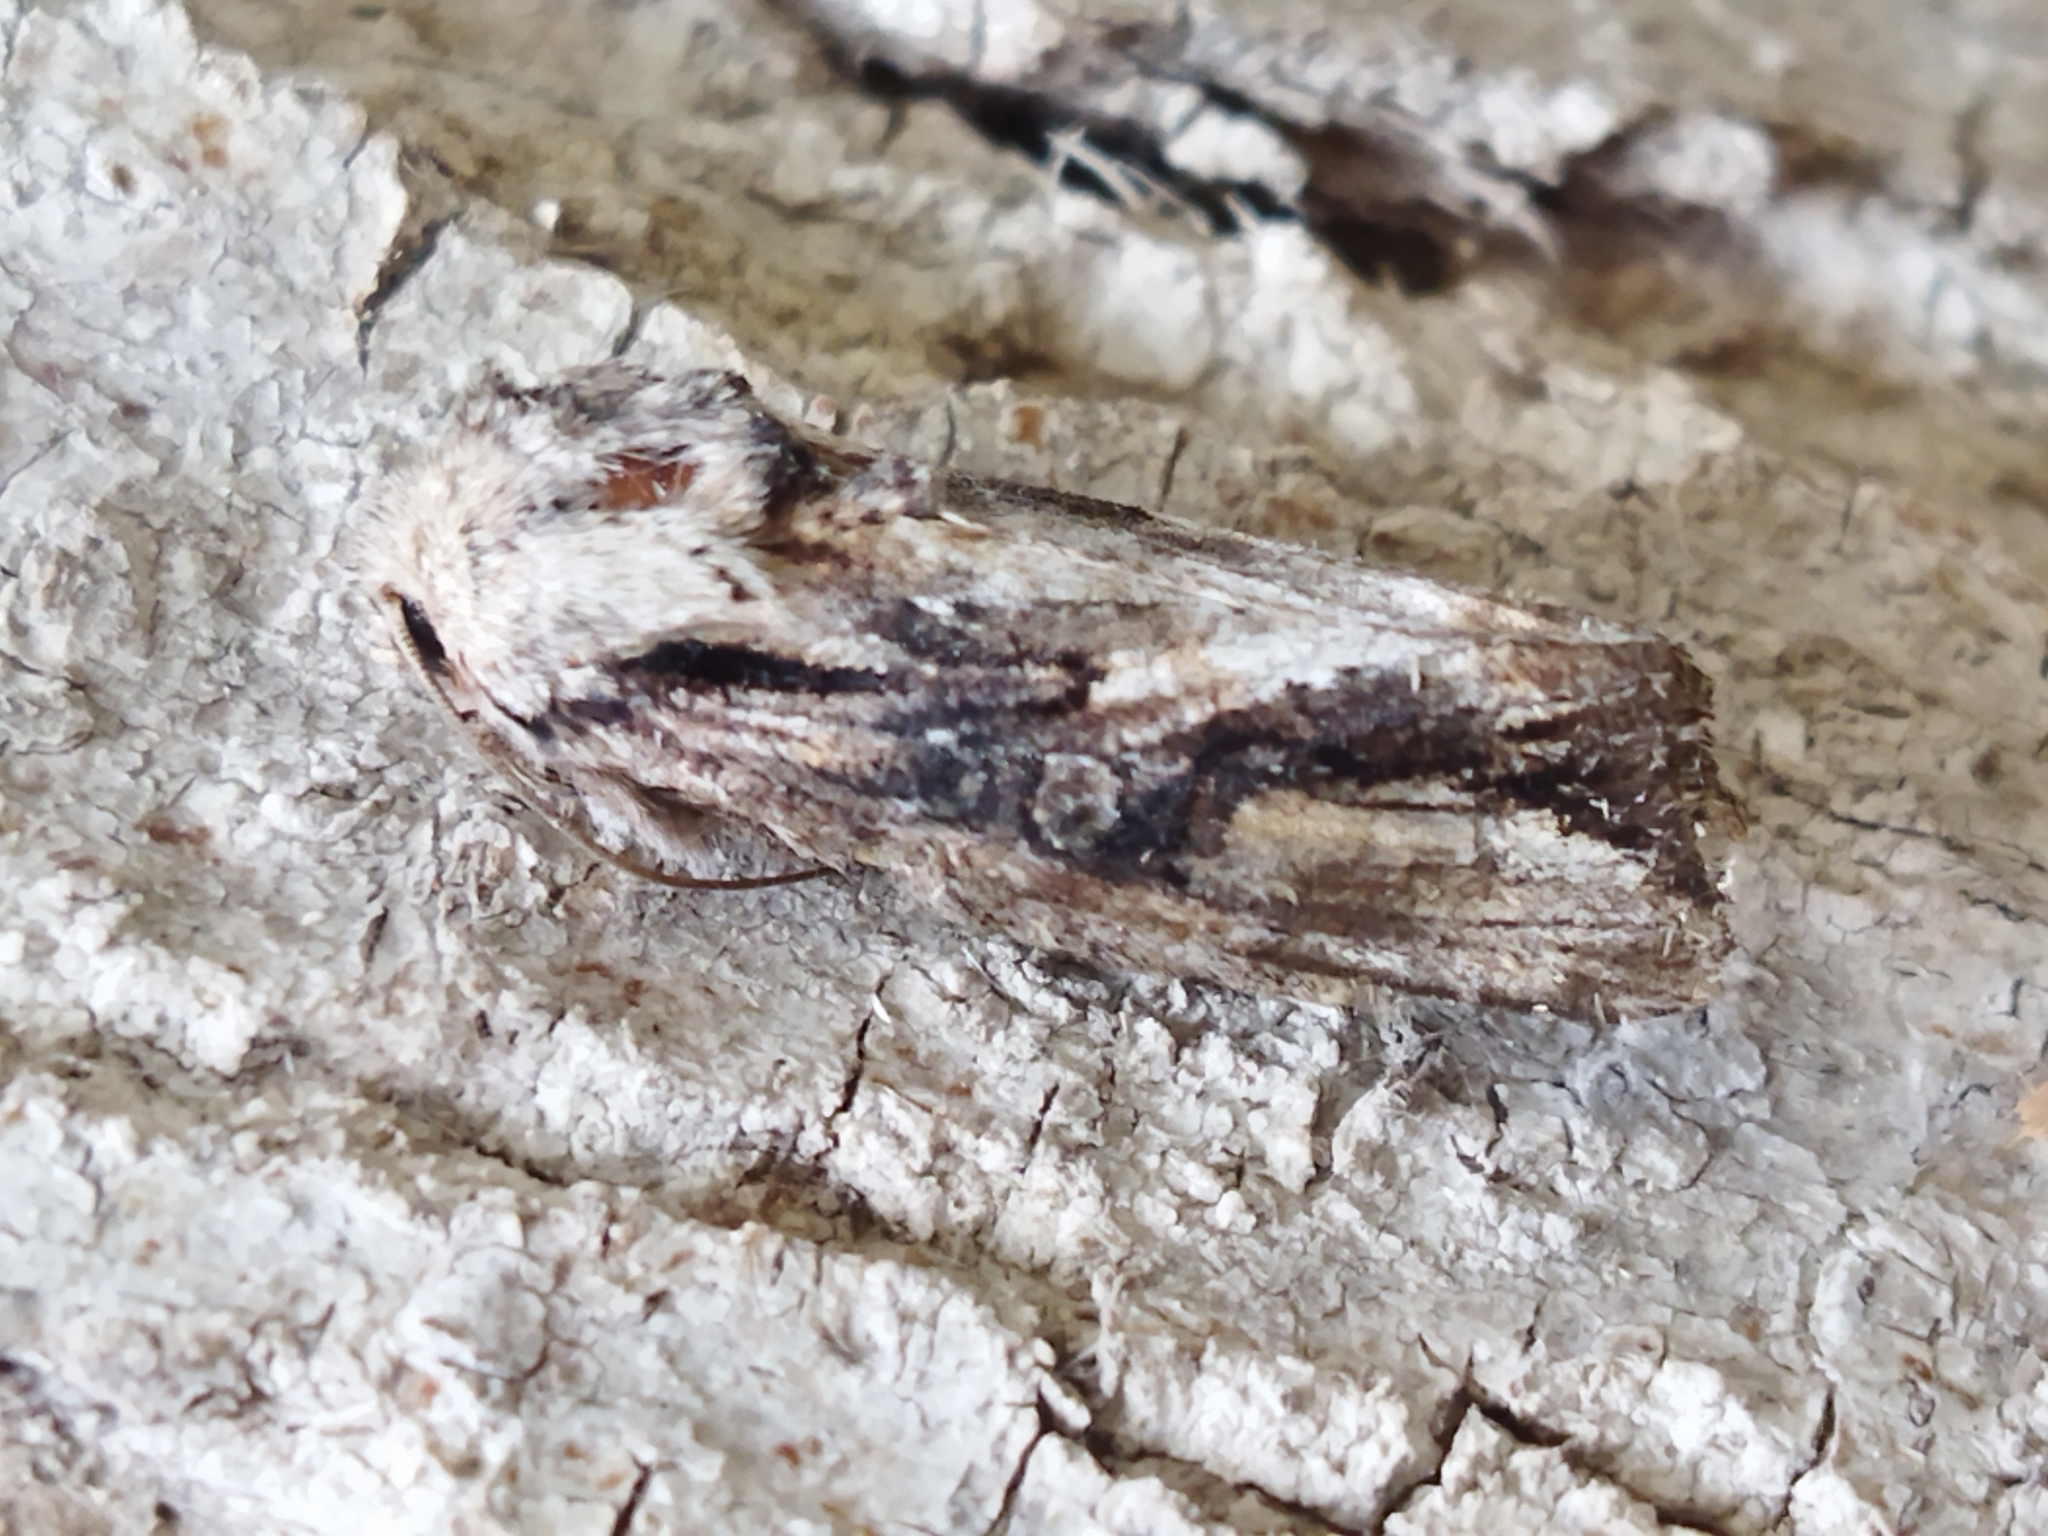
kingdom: Animalia
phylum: Arthropoda
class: Insecta
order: Lepidoptera
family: Noctuidae
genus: Egira
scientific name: Egira
